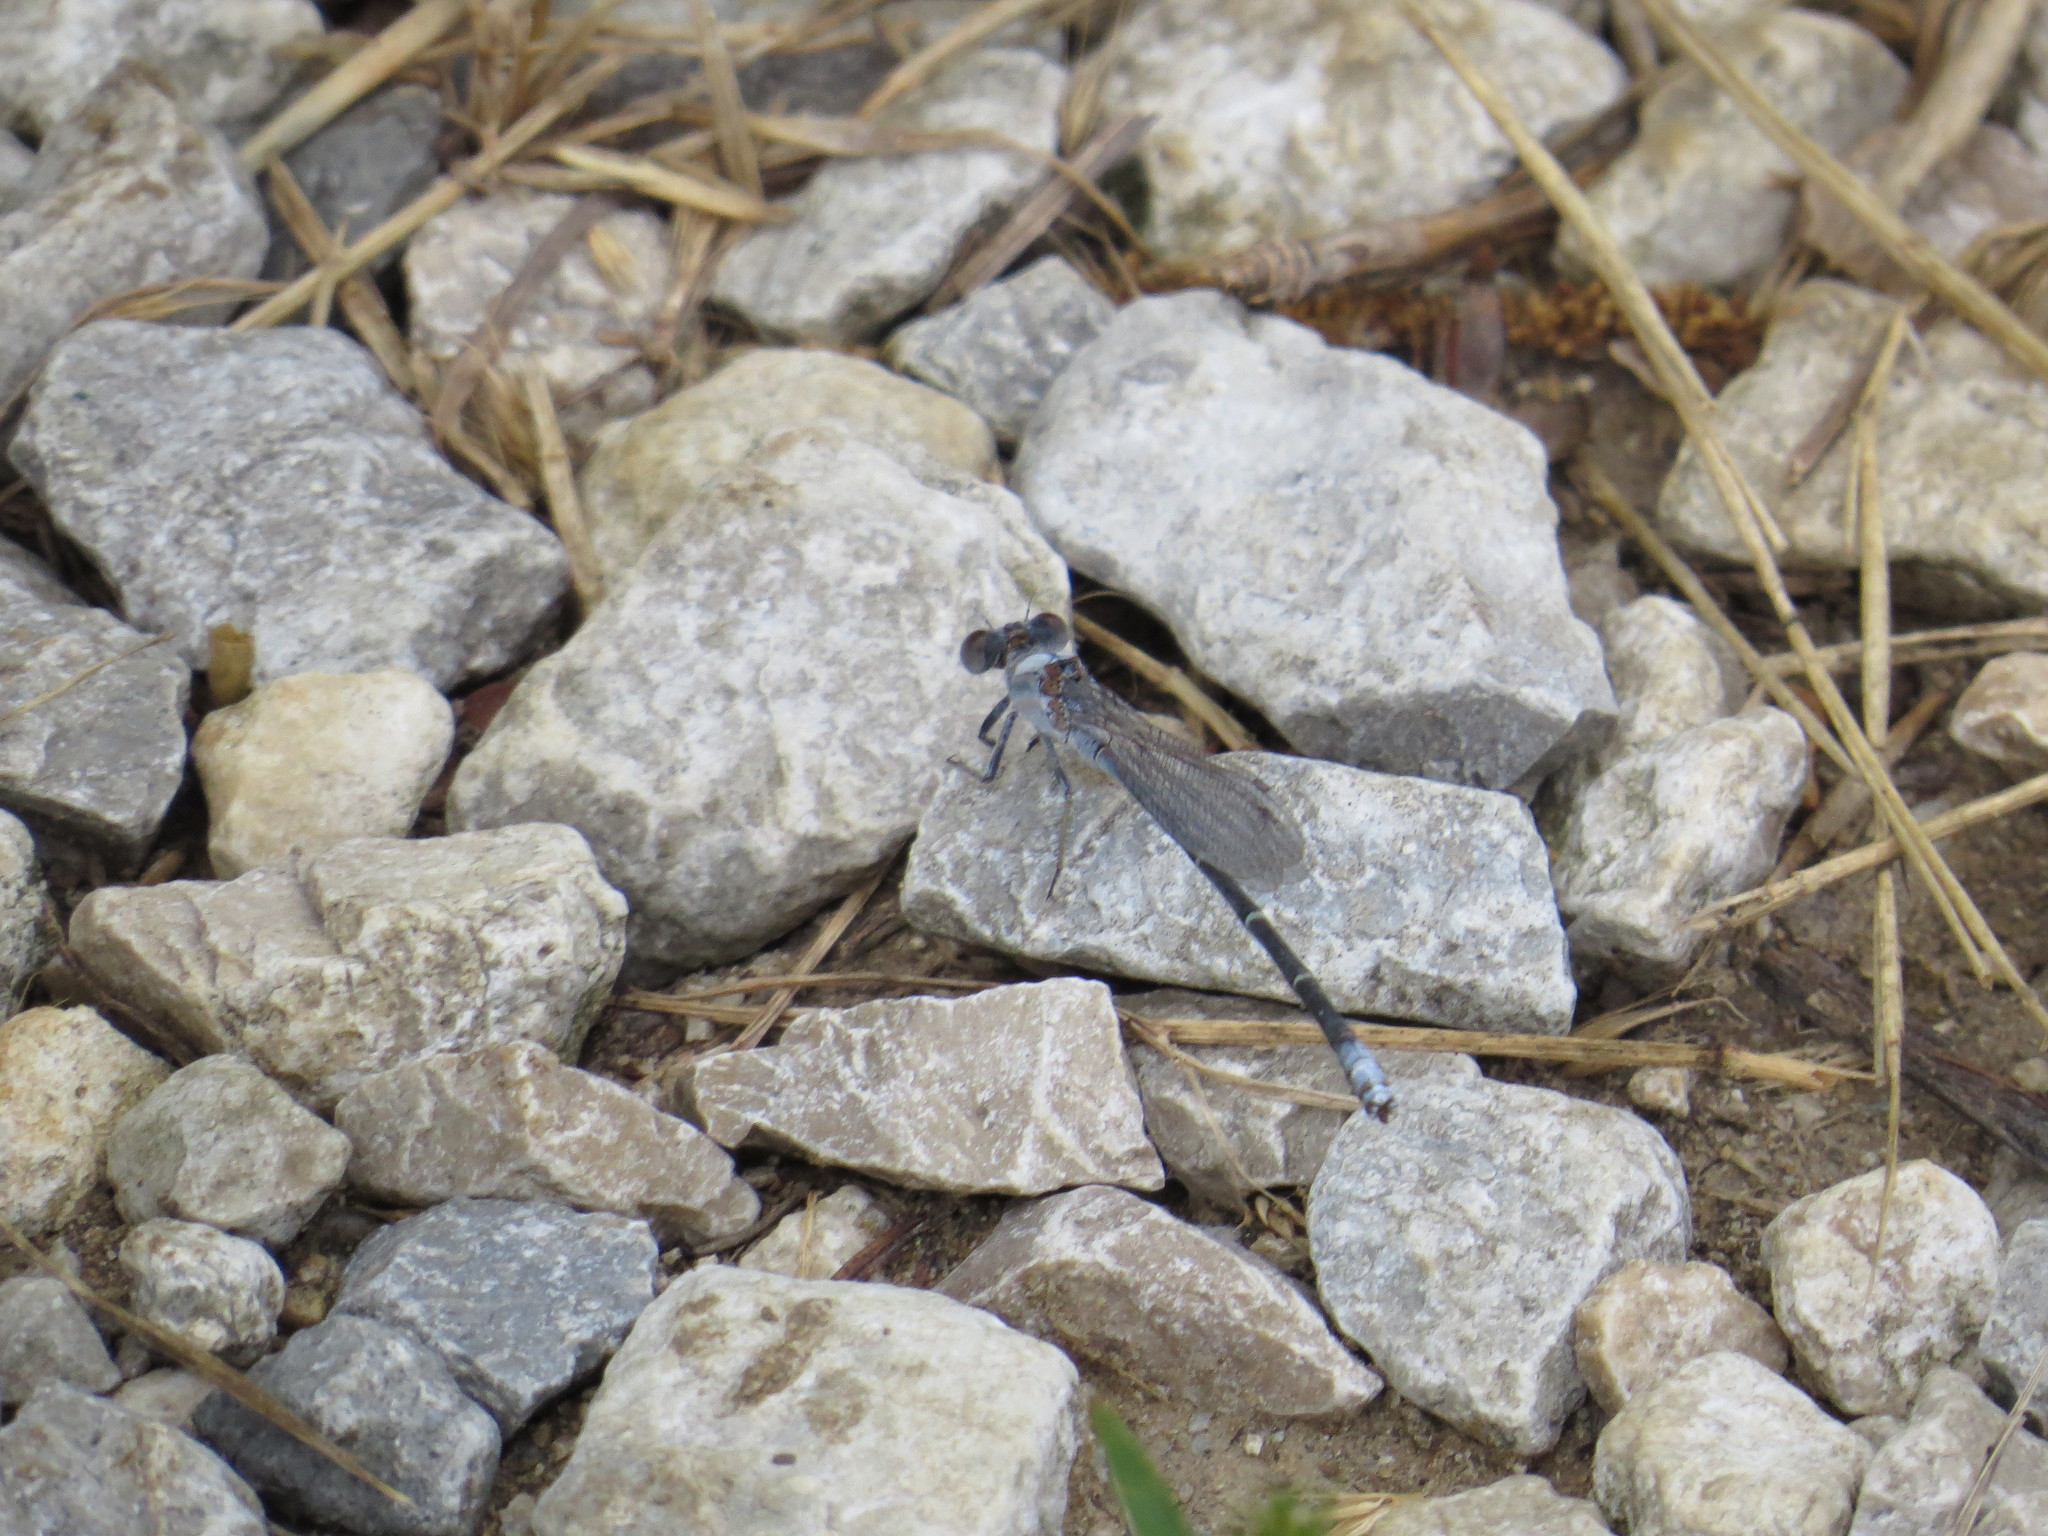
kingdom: Animalia
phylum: Arthropoda
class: Insecta
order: Odonata
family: Coenagrionidae
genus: Argia
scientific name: Argia moesta
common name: Powdered dancer
